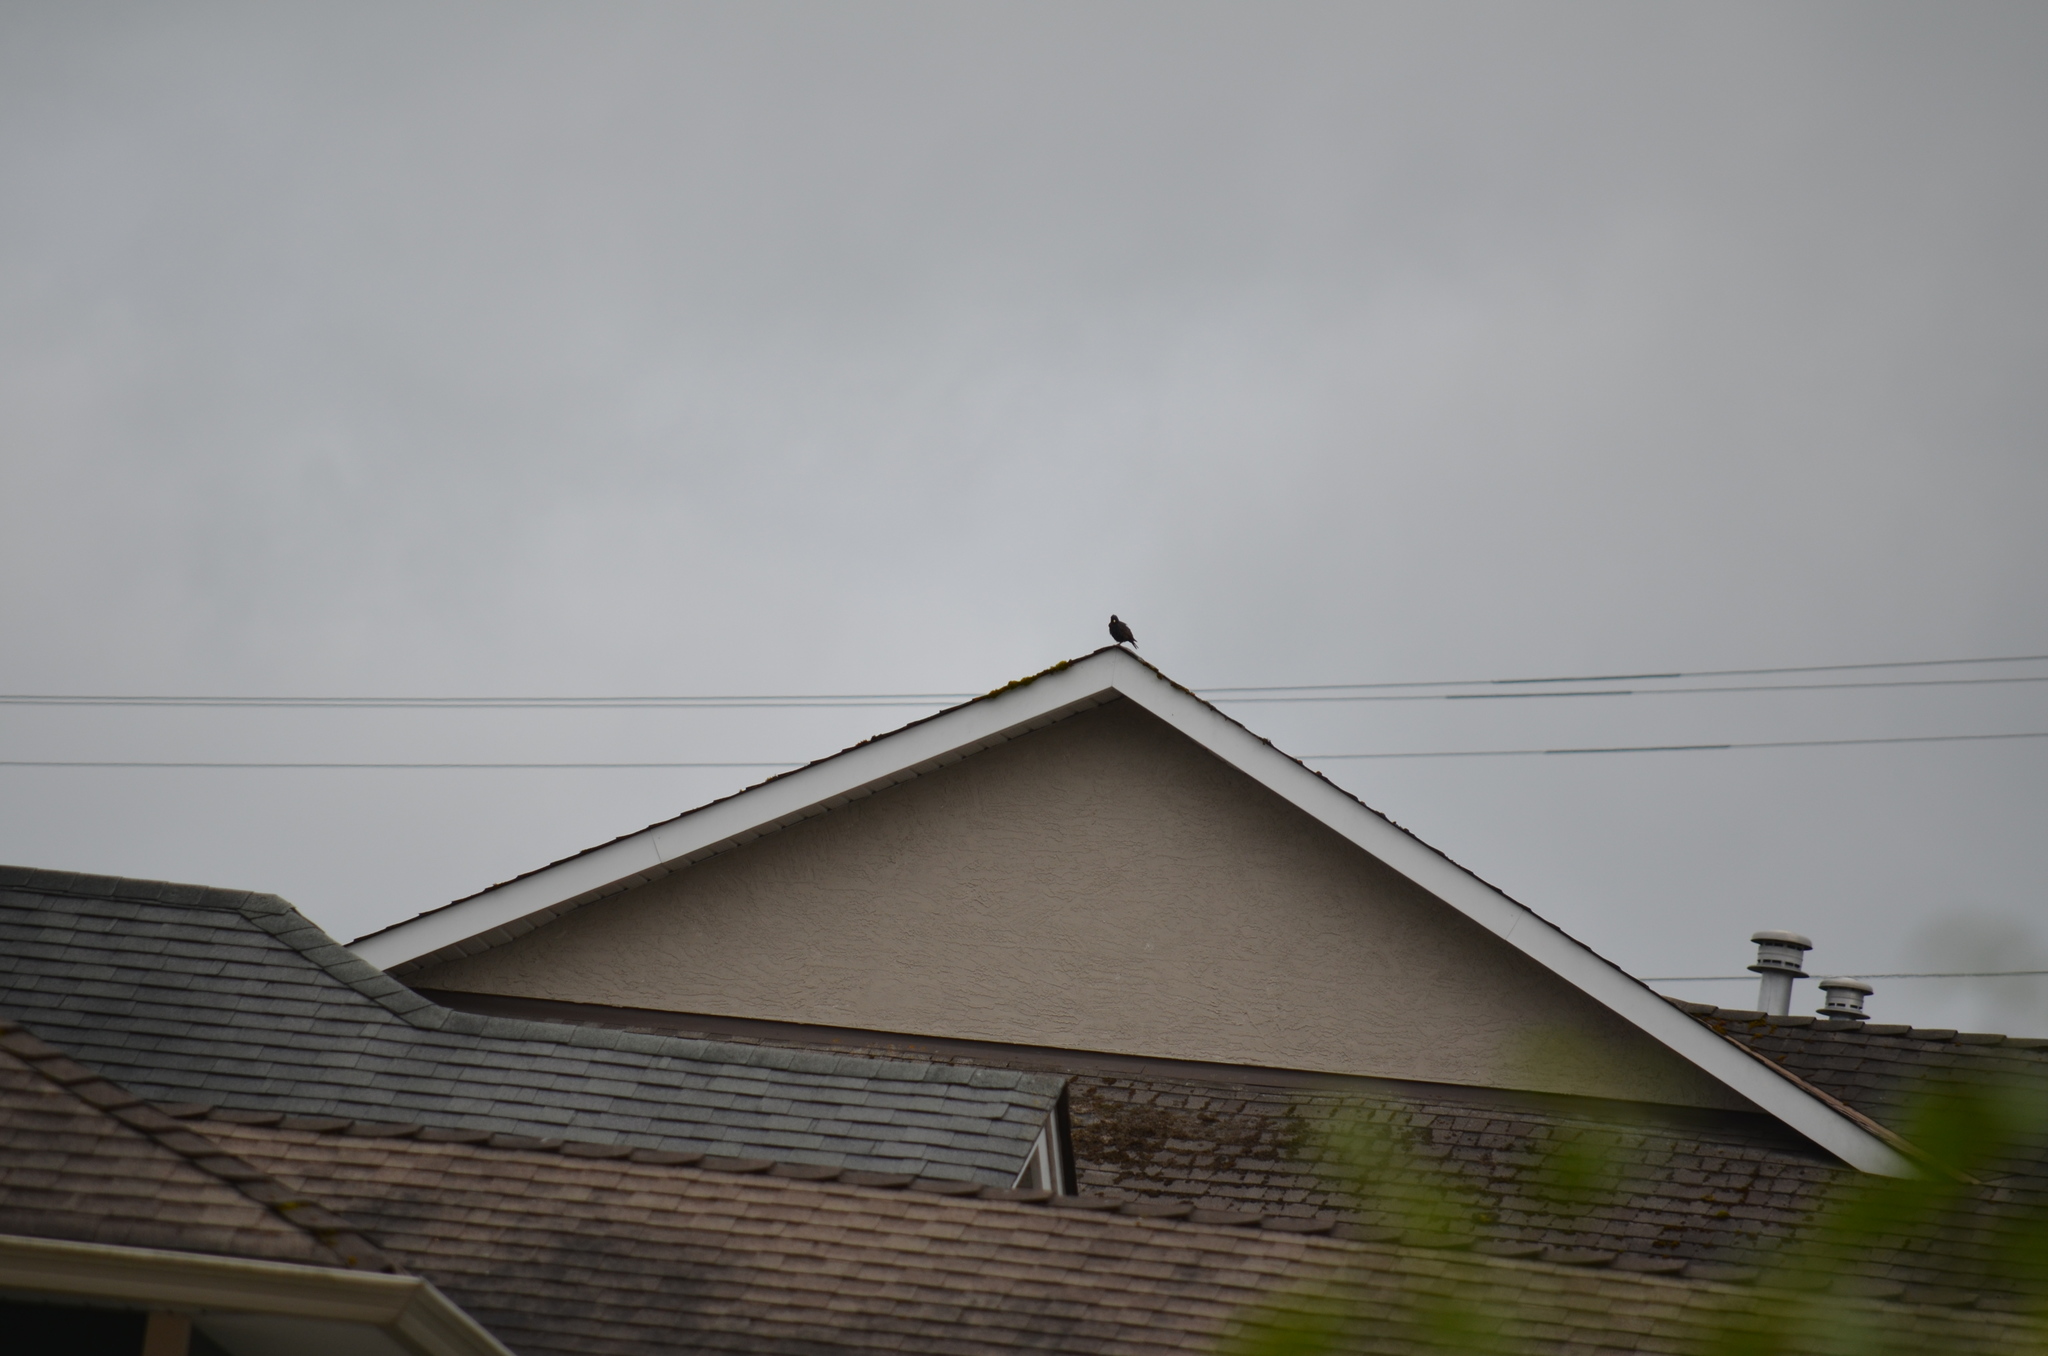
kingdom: Animalia
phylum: Chordata
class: Aves
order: Passeriformes
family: Sturnidae
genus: Sturnus
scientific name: Sturnus vulgaris
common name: Common starling
